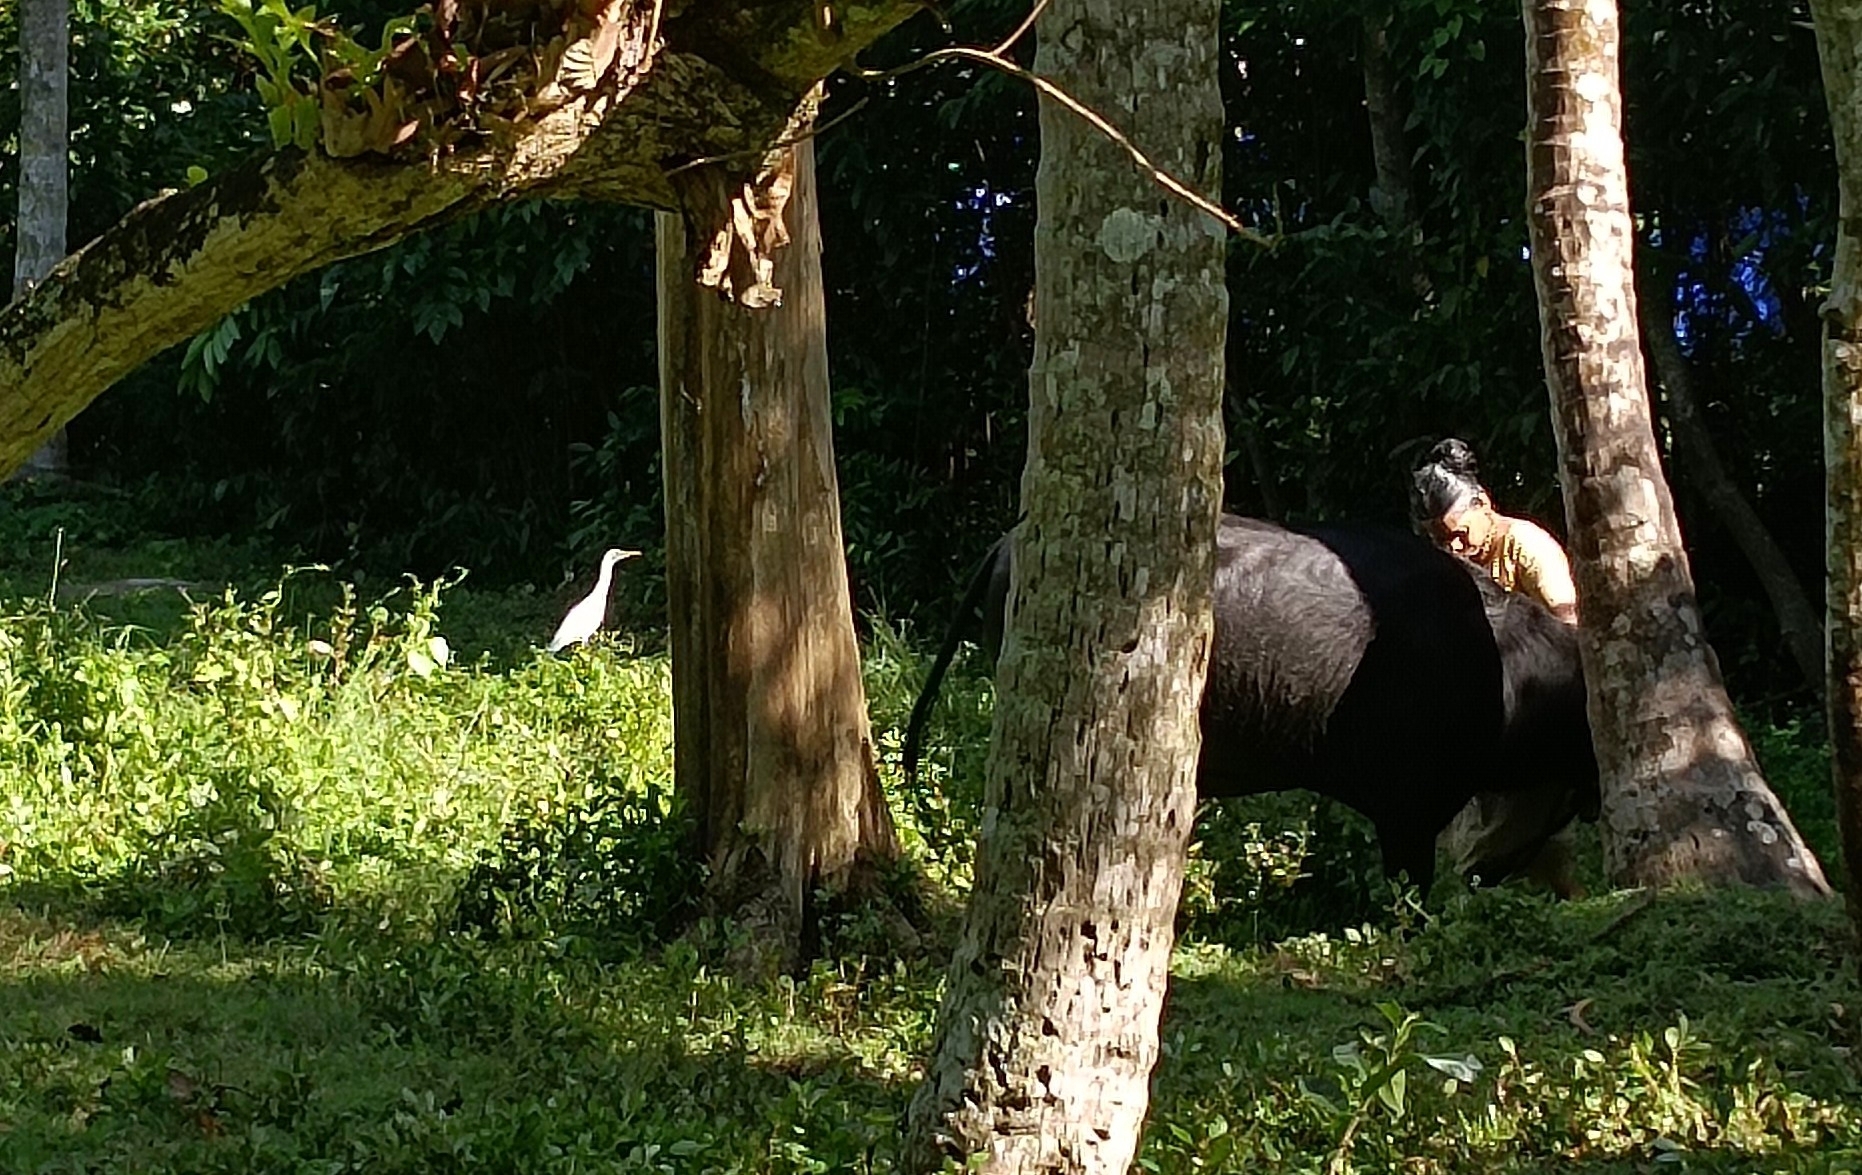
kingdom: Animalia
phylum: Chordata
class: Aves
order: Pelecaniformes
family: Ardeidae
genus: Bubulcus
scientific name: Bubulcus coromandus
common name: Eastern cattle egret
